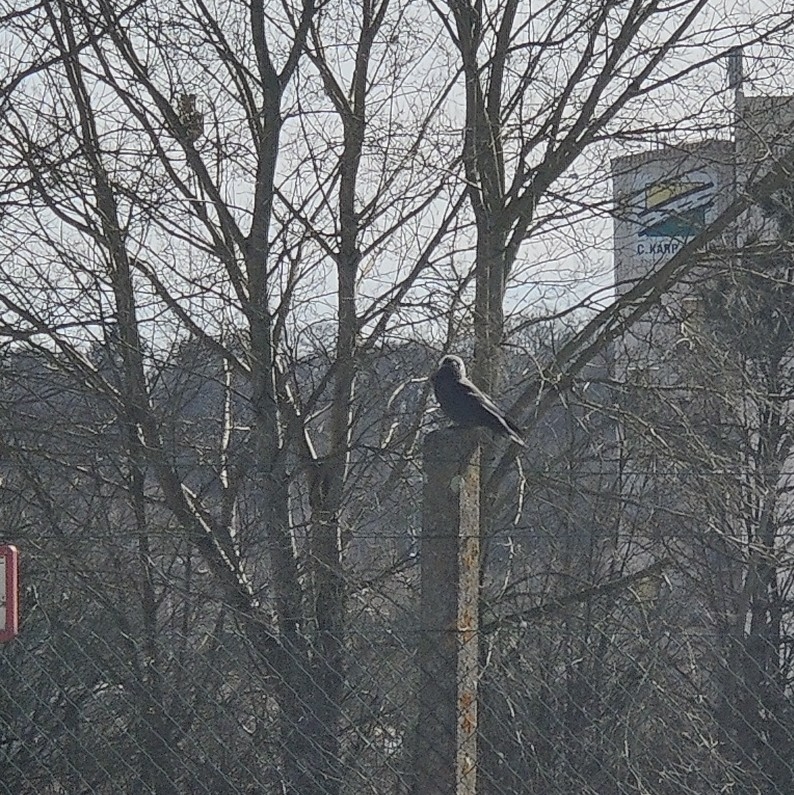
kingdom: Animalia
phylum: Chordata
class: Aves
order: Passeriformes
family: Corvidae
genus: Coloeus
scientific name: Coloeus monedula
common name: Western jackdaw
